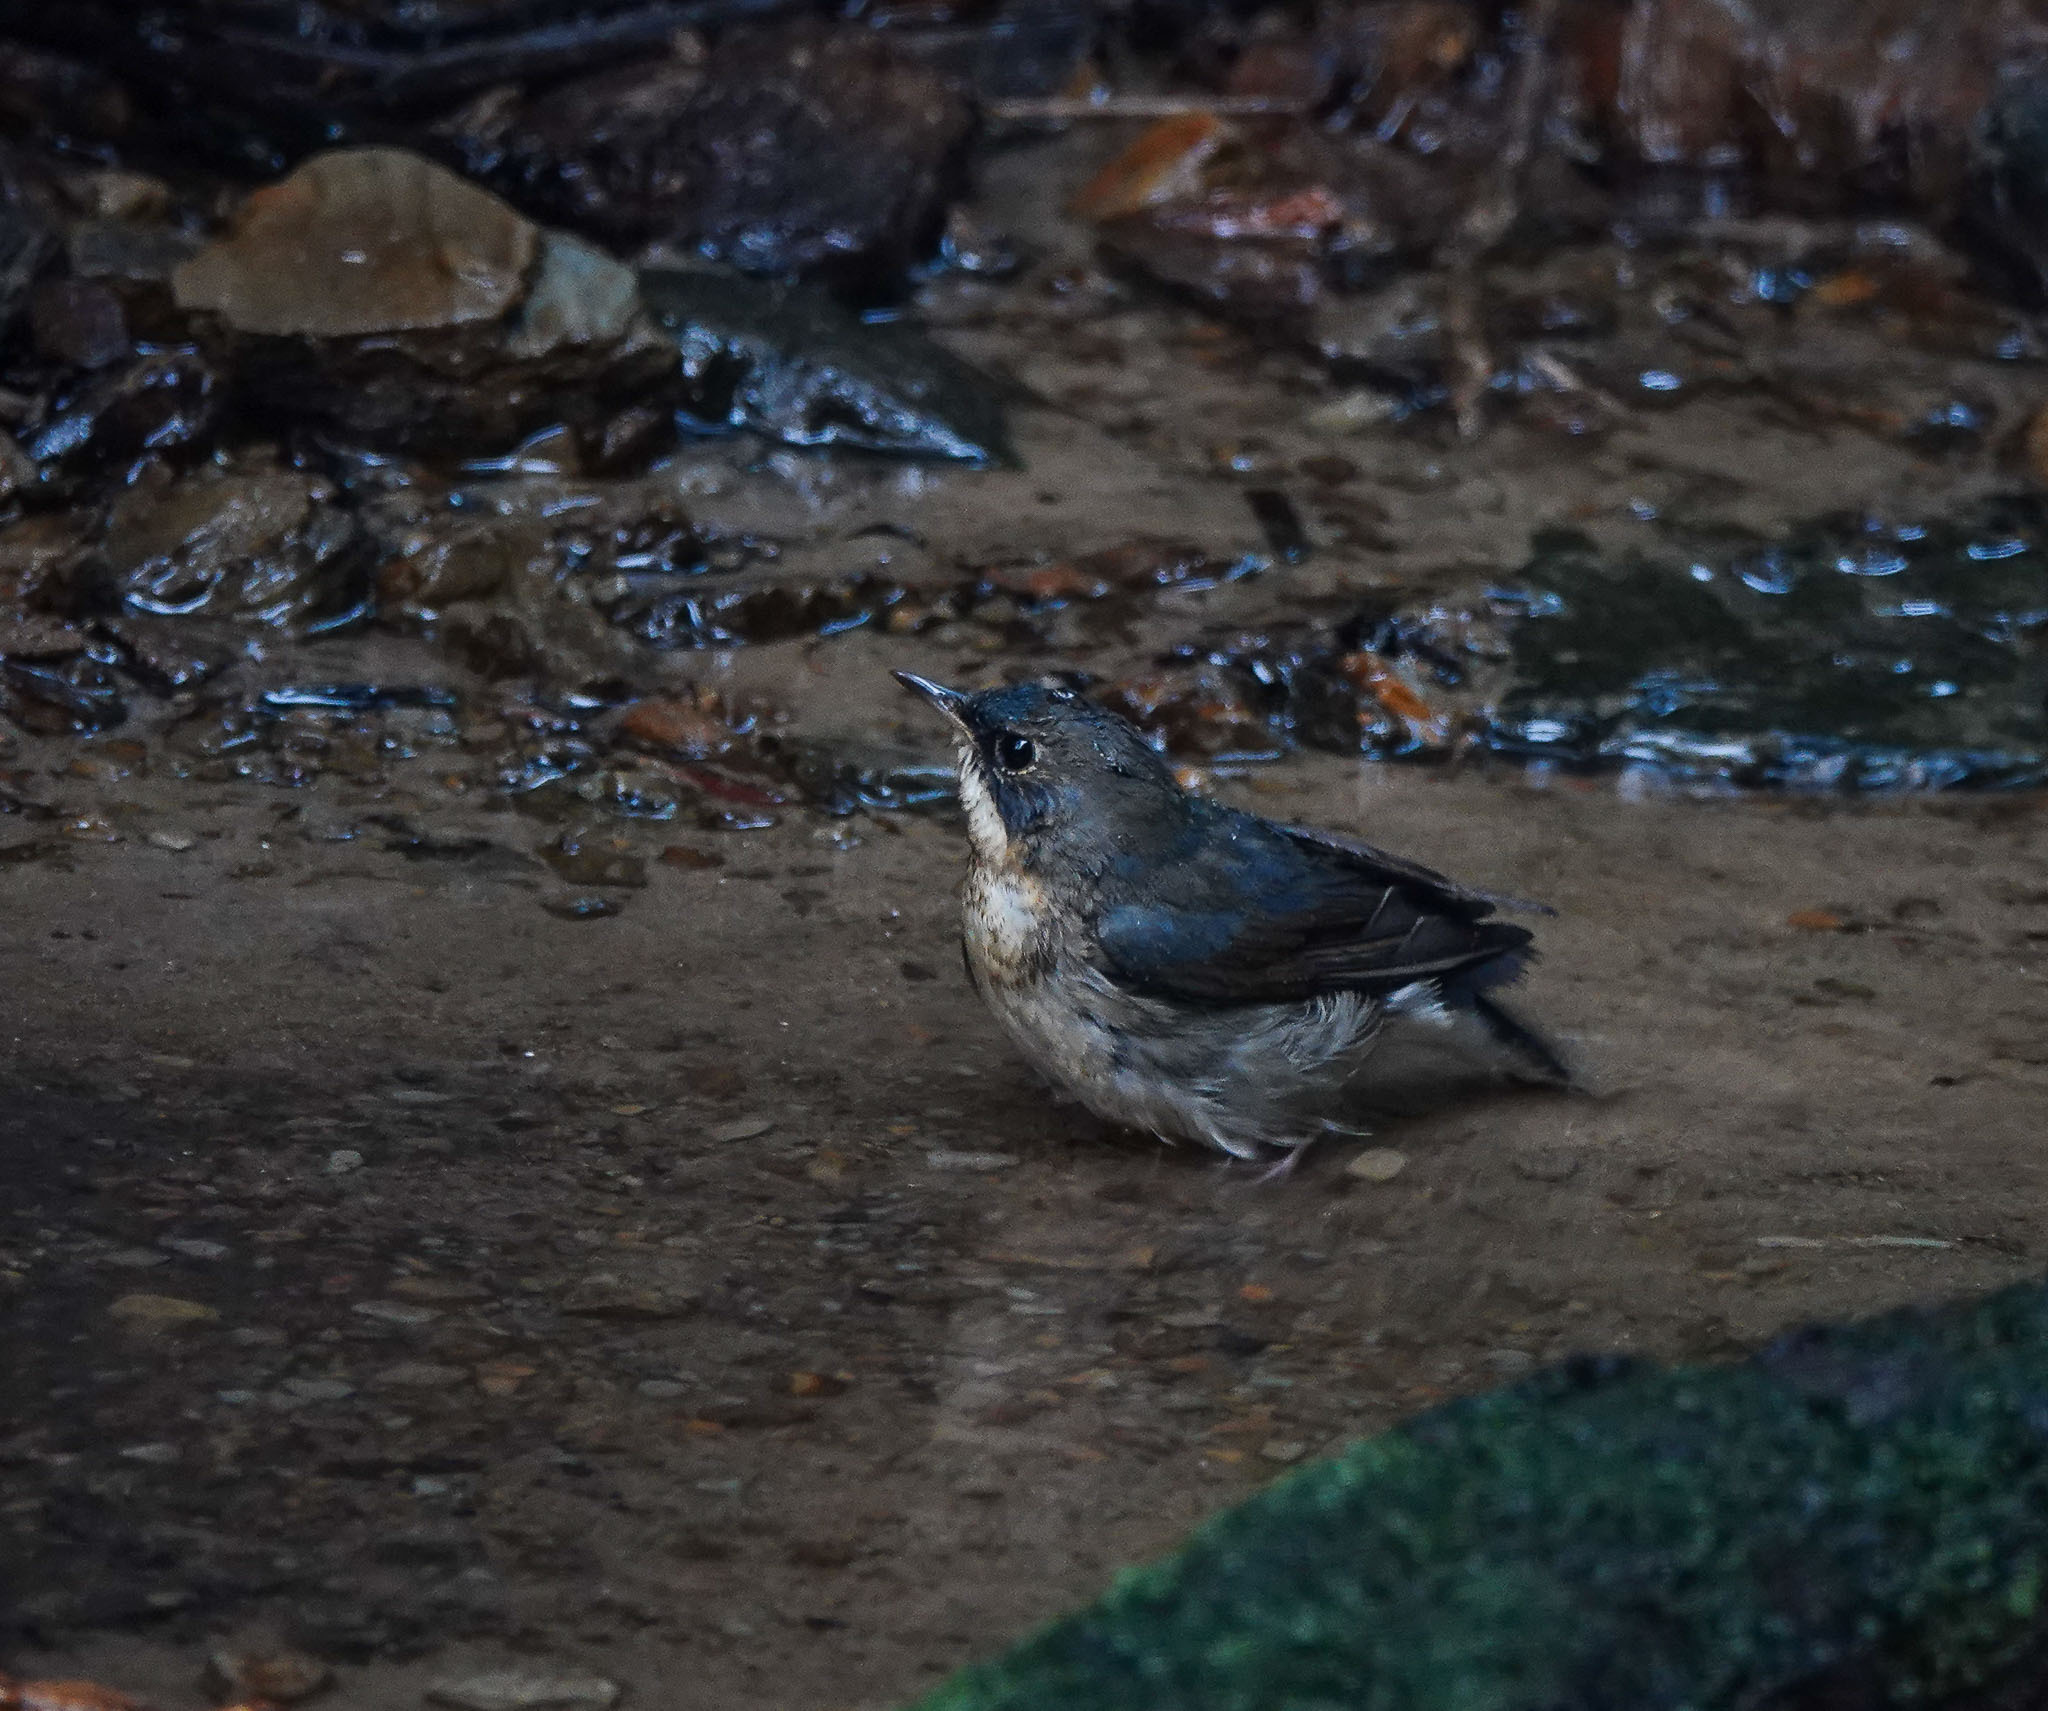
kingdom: Animalia
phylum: Chordata
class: Aves
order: Passeriformes
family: Muscicapidae
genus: Luscinia
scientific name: Luscinia cyane
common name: Siberian blue robin
